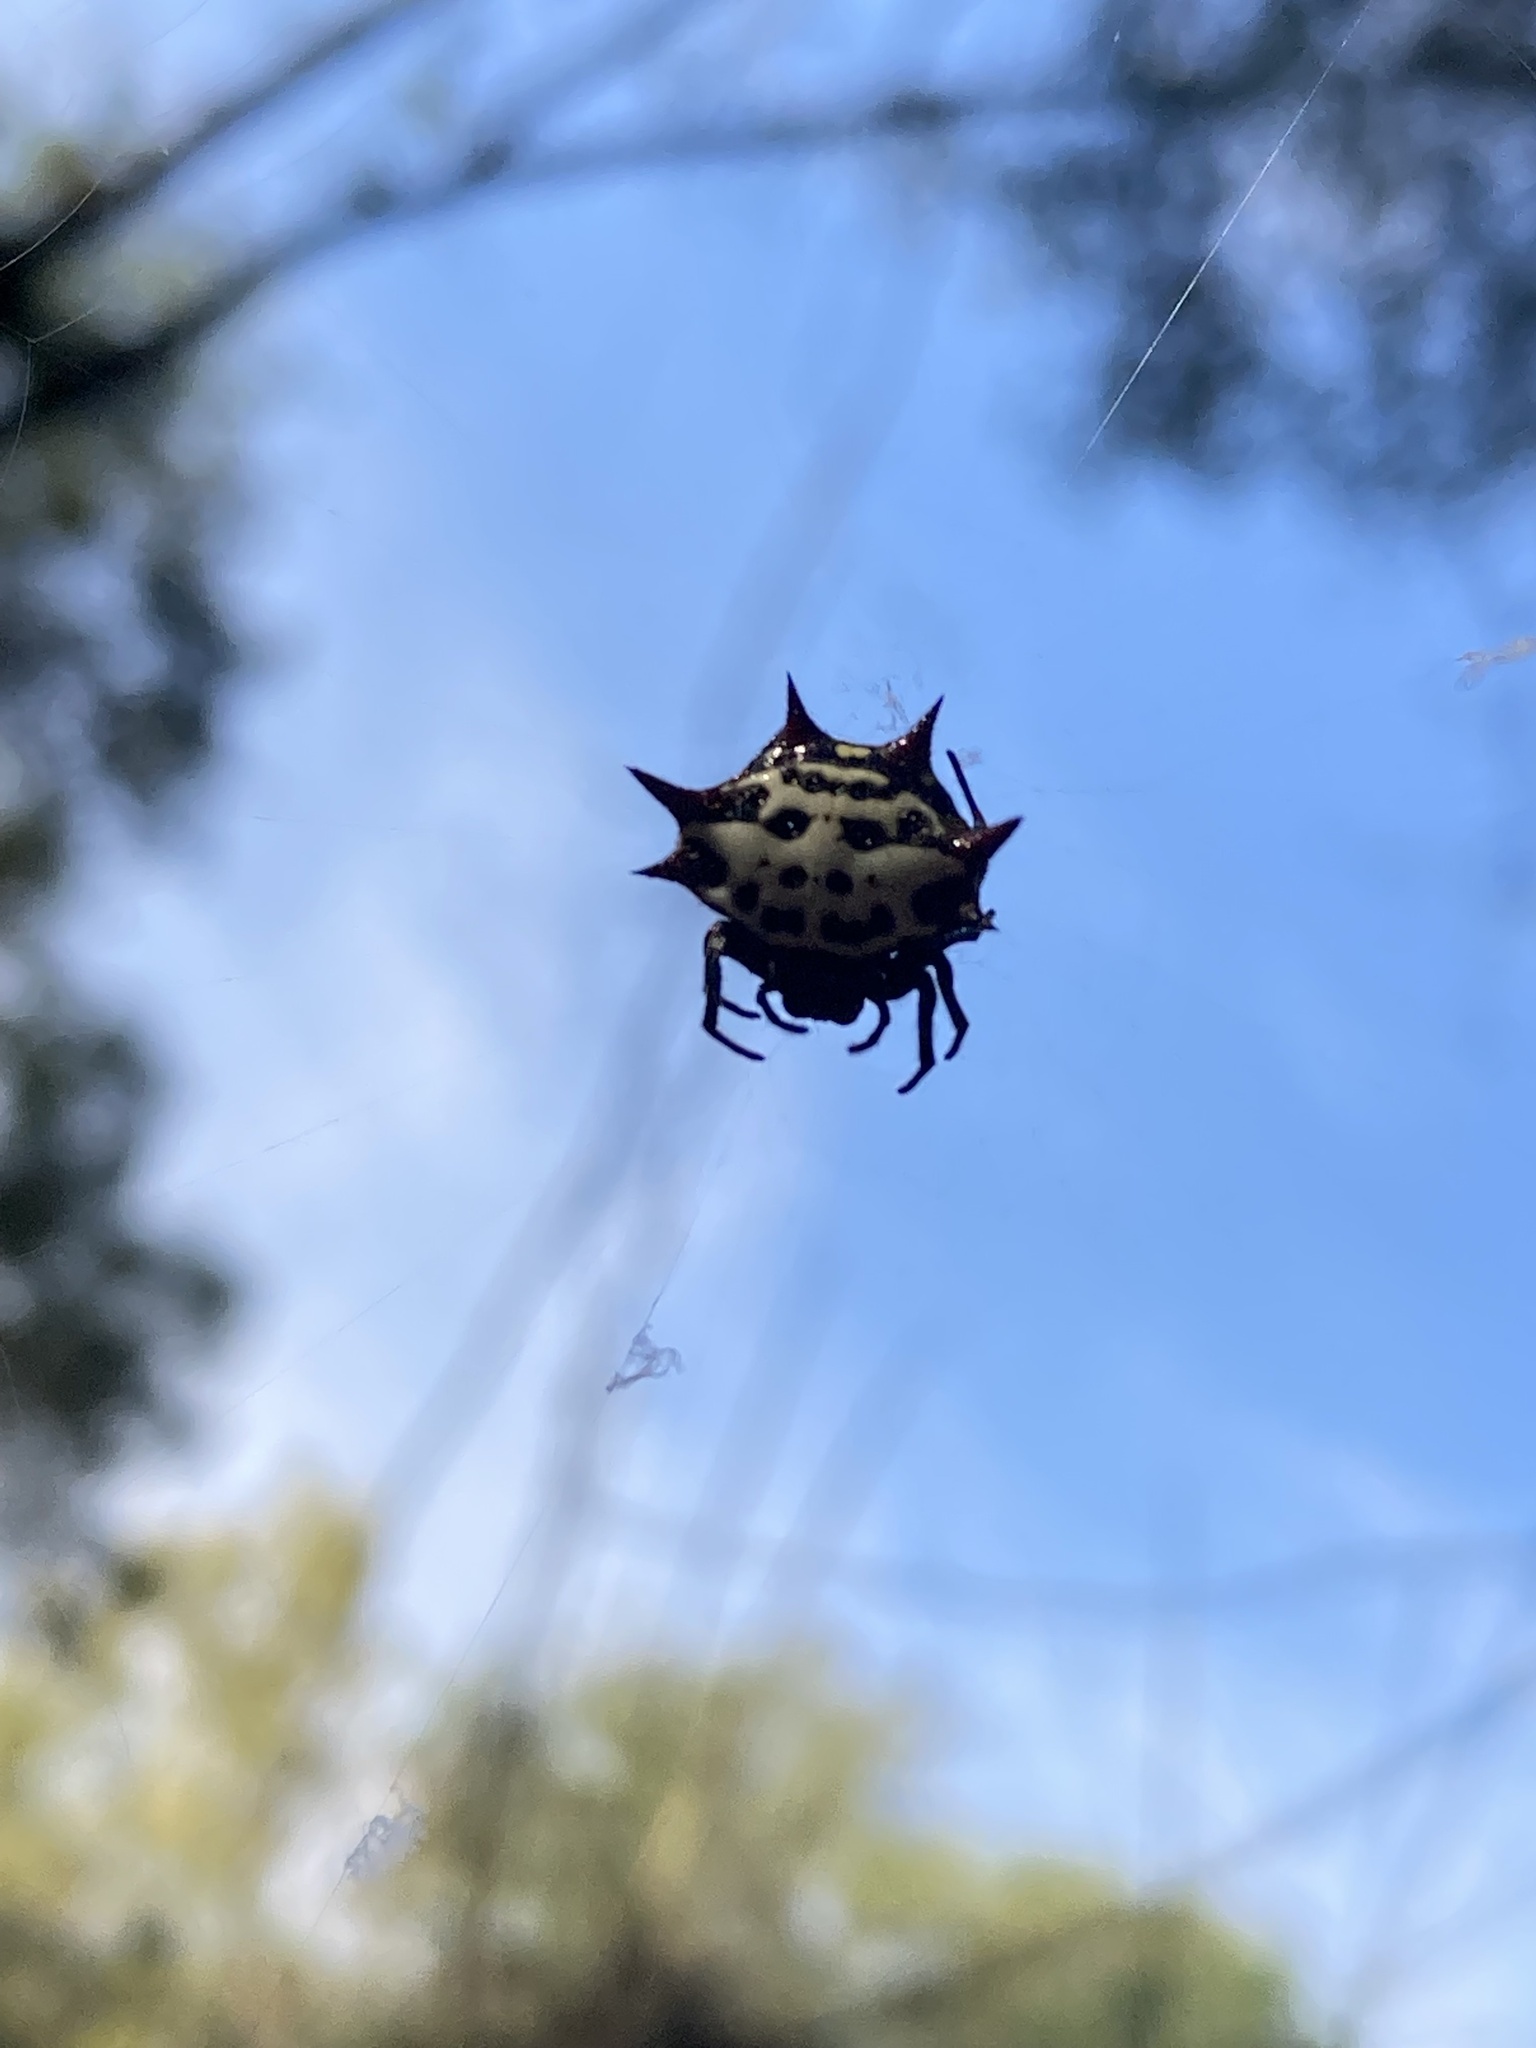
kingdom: Animalia
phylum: Arthropoda
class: Arachnida
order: Araneae
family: Araneidae
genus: Gasteracantha
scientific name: Gasteracantha cancriformis
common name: Orb weavers
